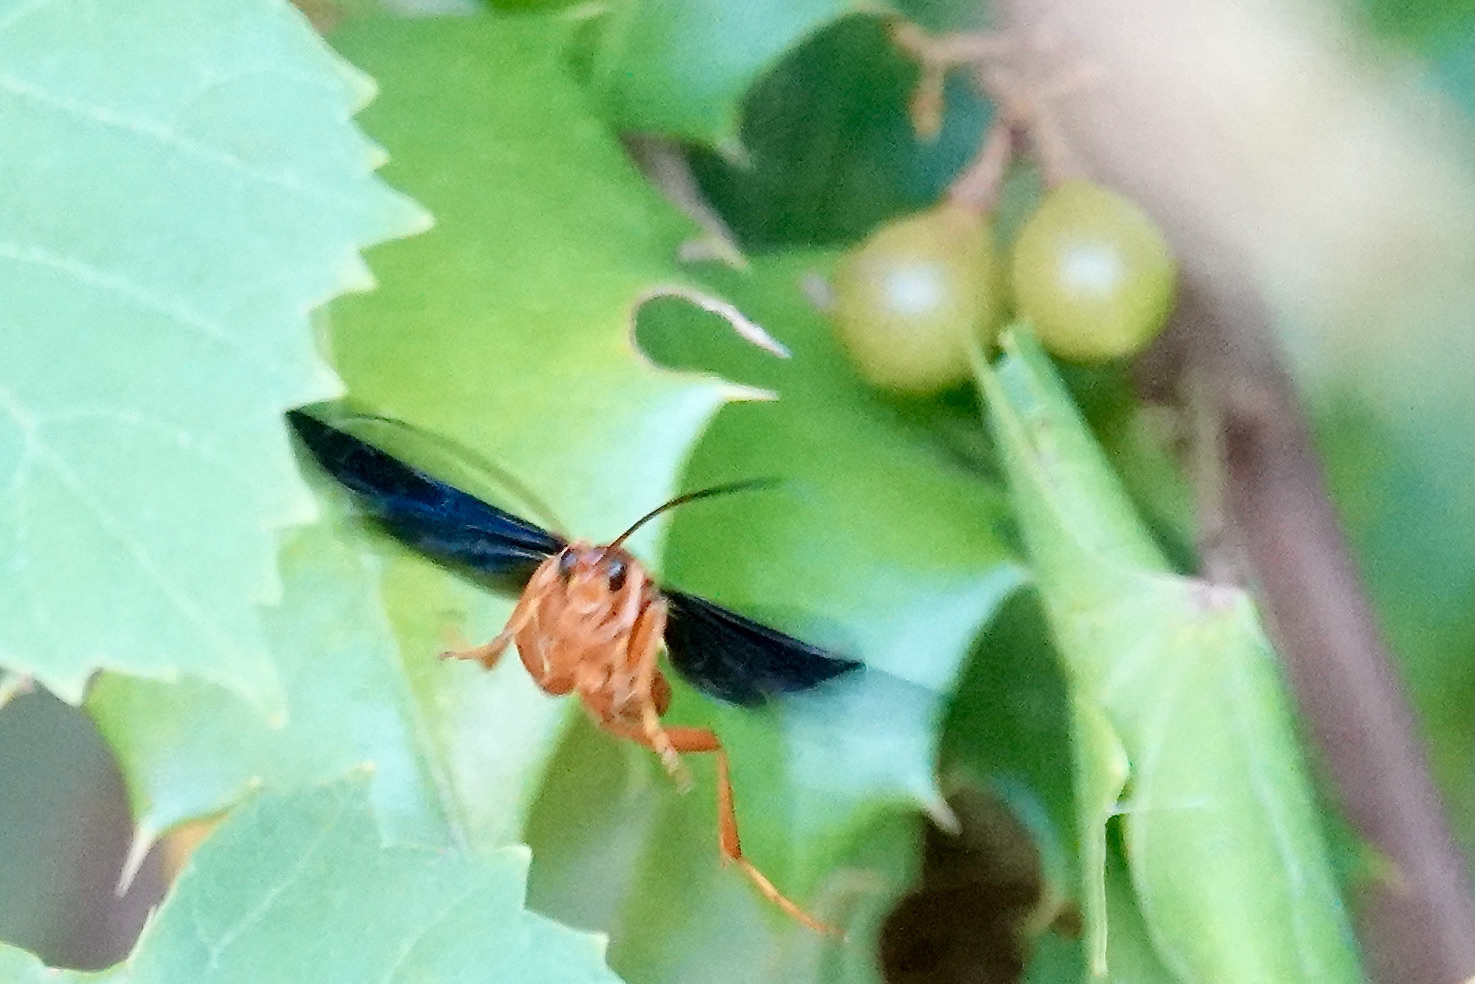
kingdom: Animalia
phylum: Arthropoda
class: Insecta
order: Hymenoptera
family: Ichneumonidae
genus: Trogus
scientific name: Trogus vulpinus
